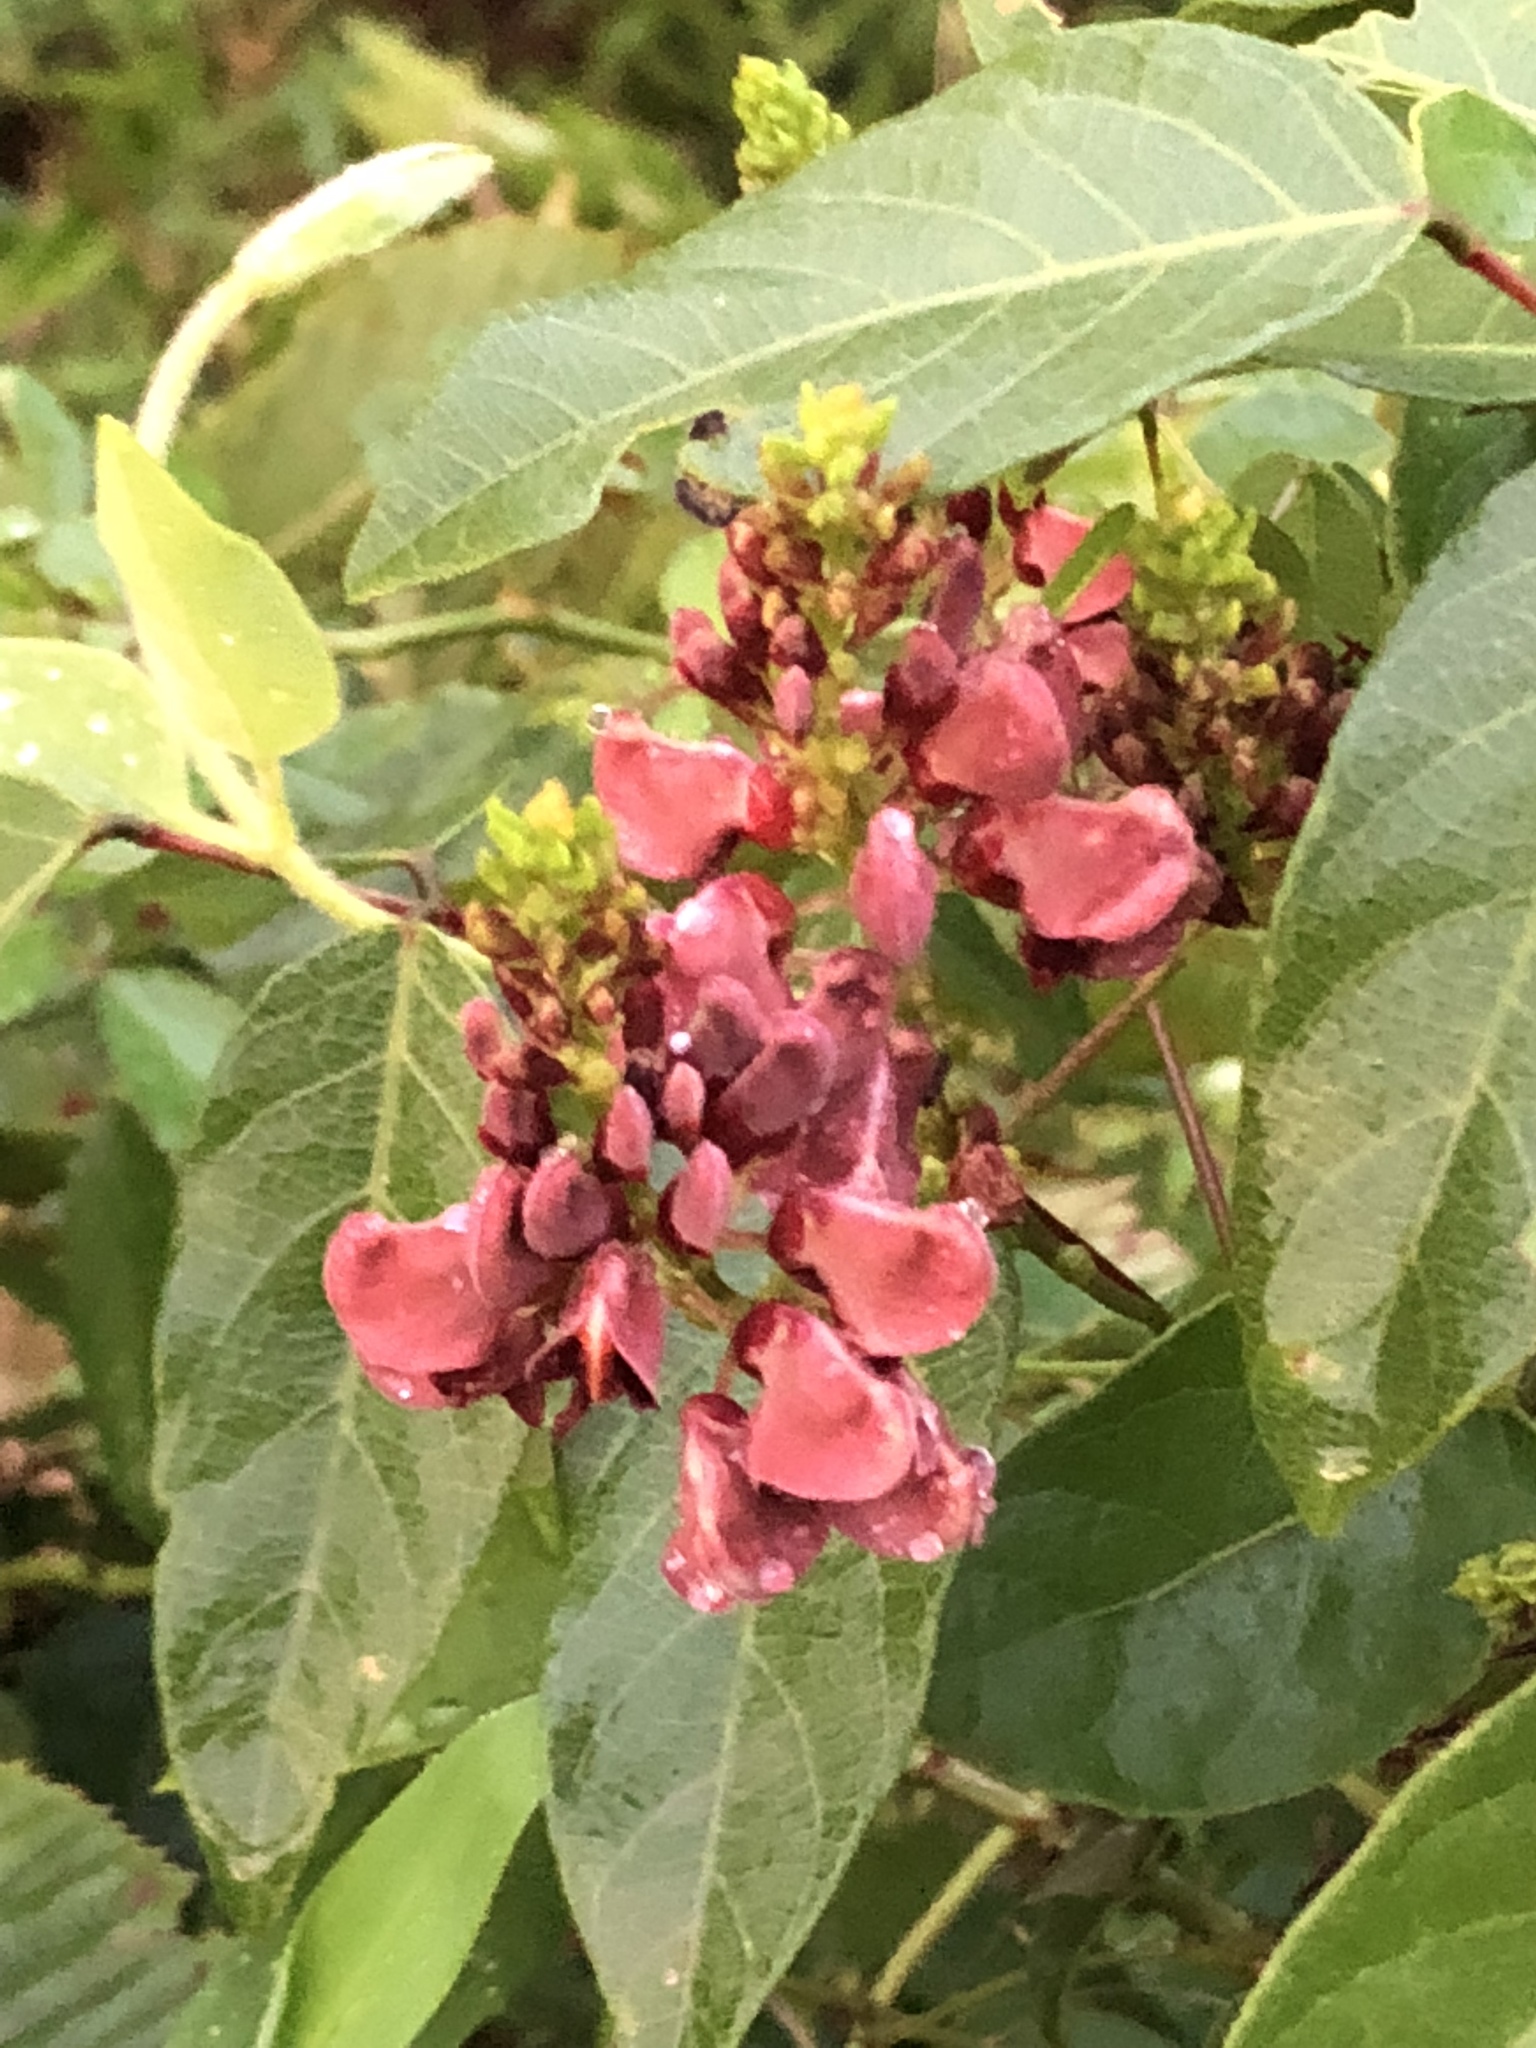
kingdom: Plantae
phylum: Tracheophyta
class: Magnoliopsida
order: Fabales
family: Fabaceae
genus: Apios
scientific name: Apios americana
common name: American potato-bean
